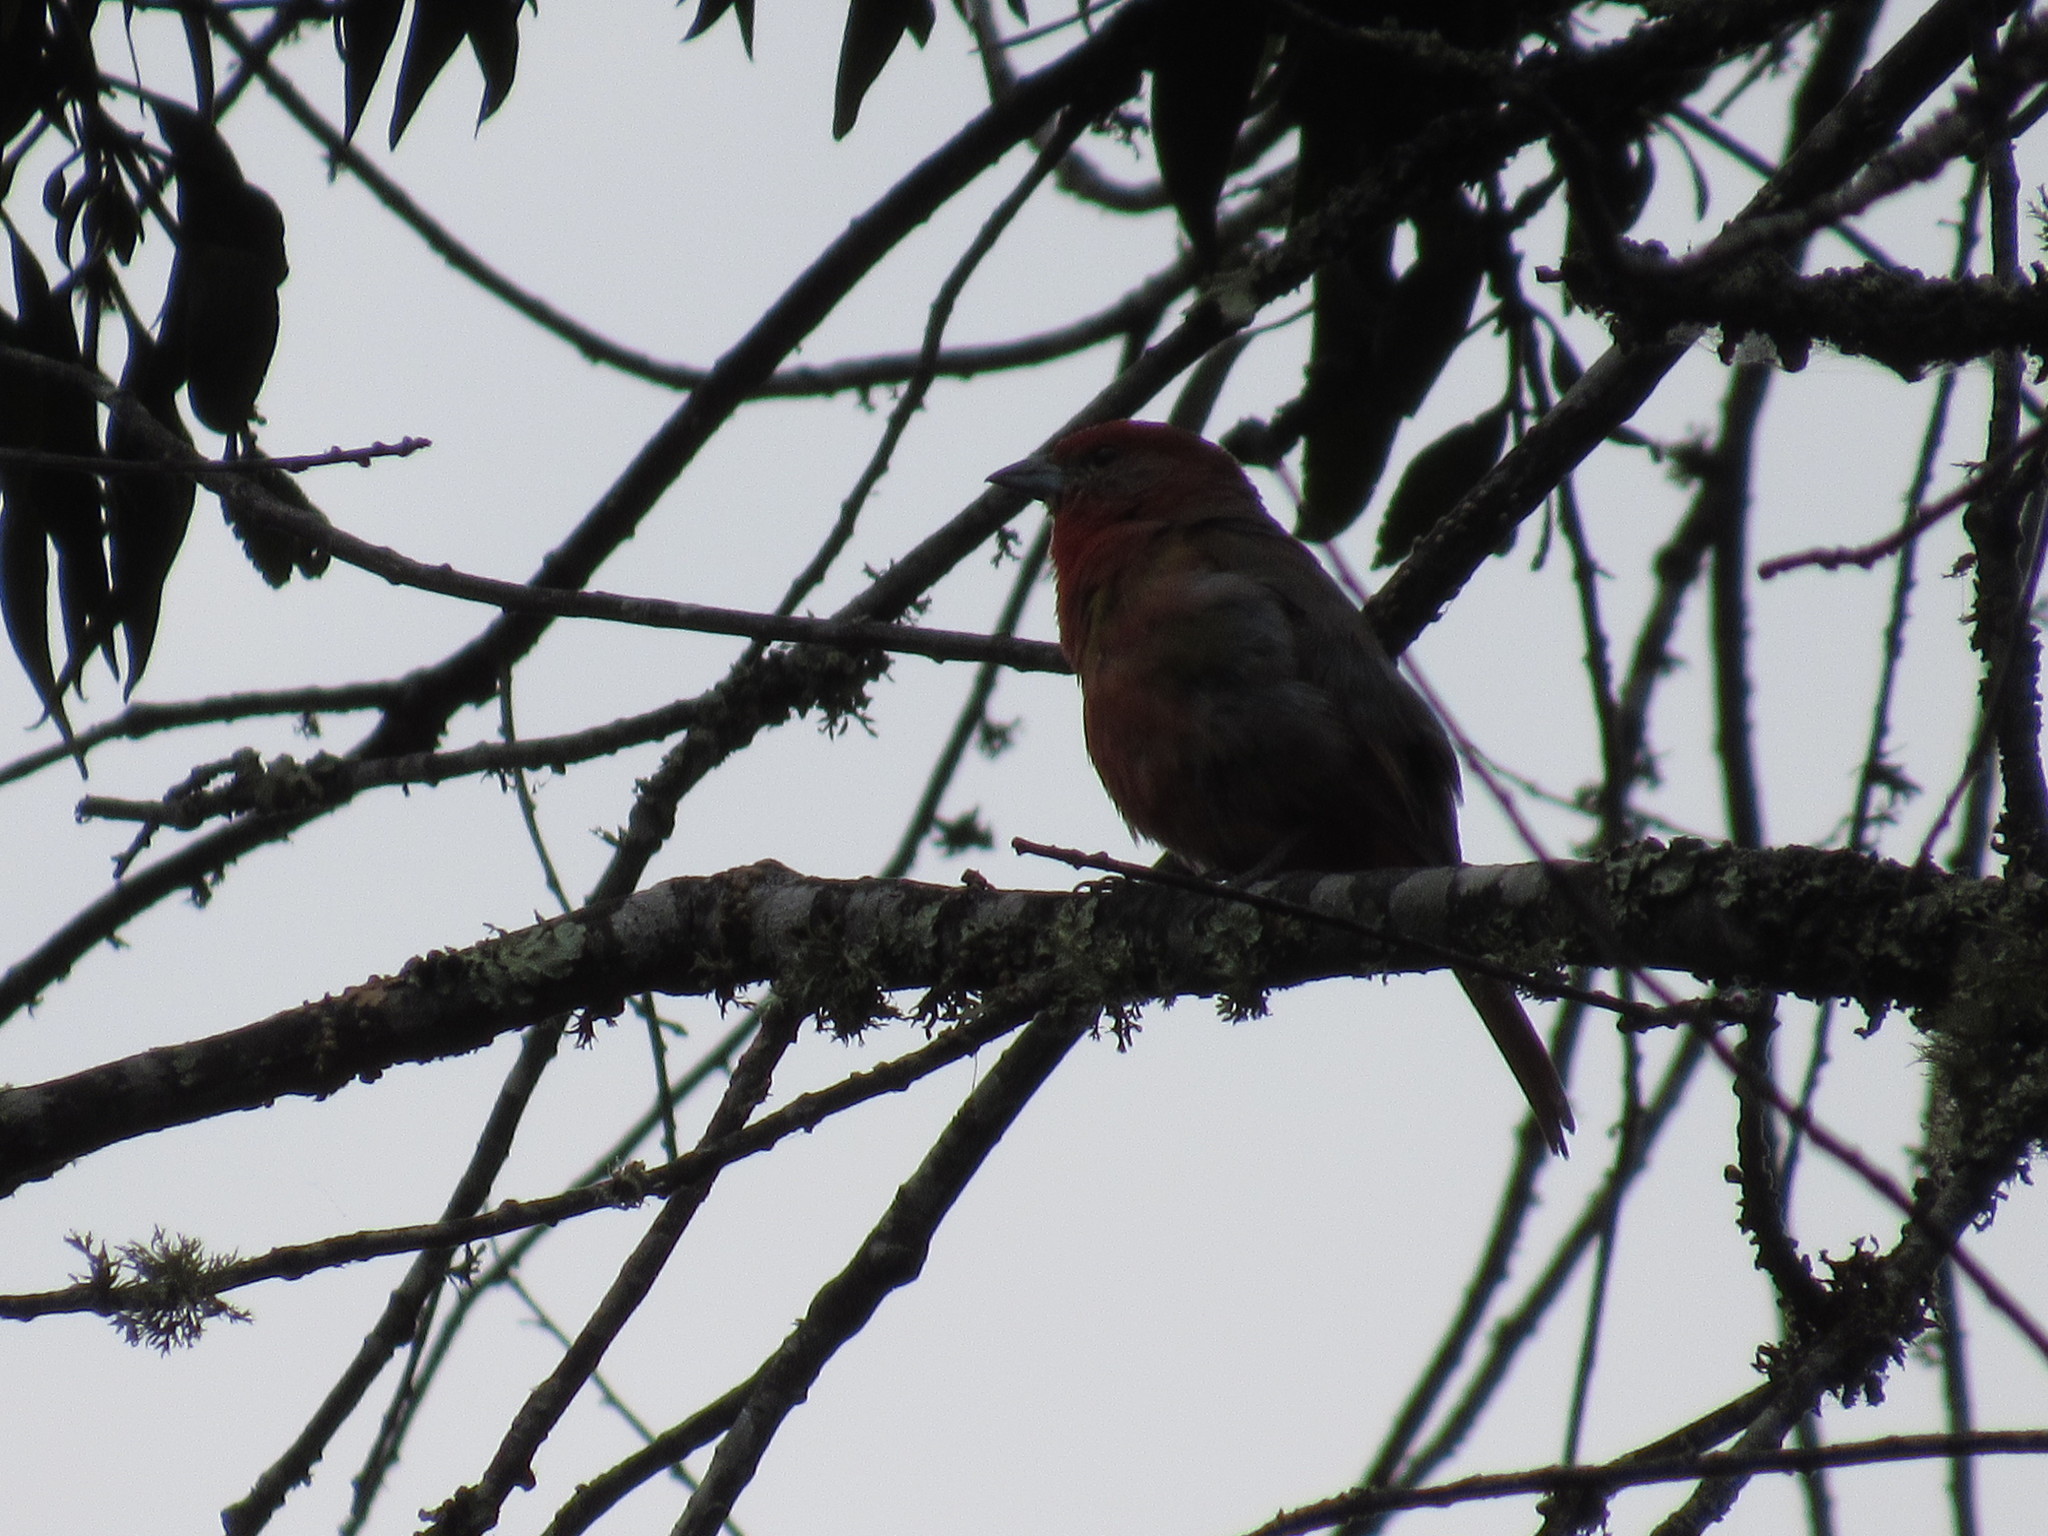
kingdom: Animalia
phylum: Chordata
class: Aves
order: Passeriformes
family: Cardinalidae
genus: Piranga
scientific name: Piranga flava
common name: Red tanager
